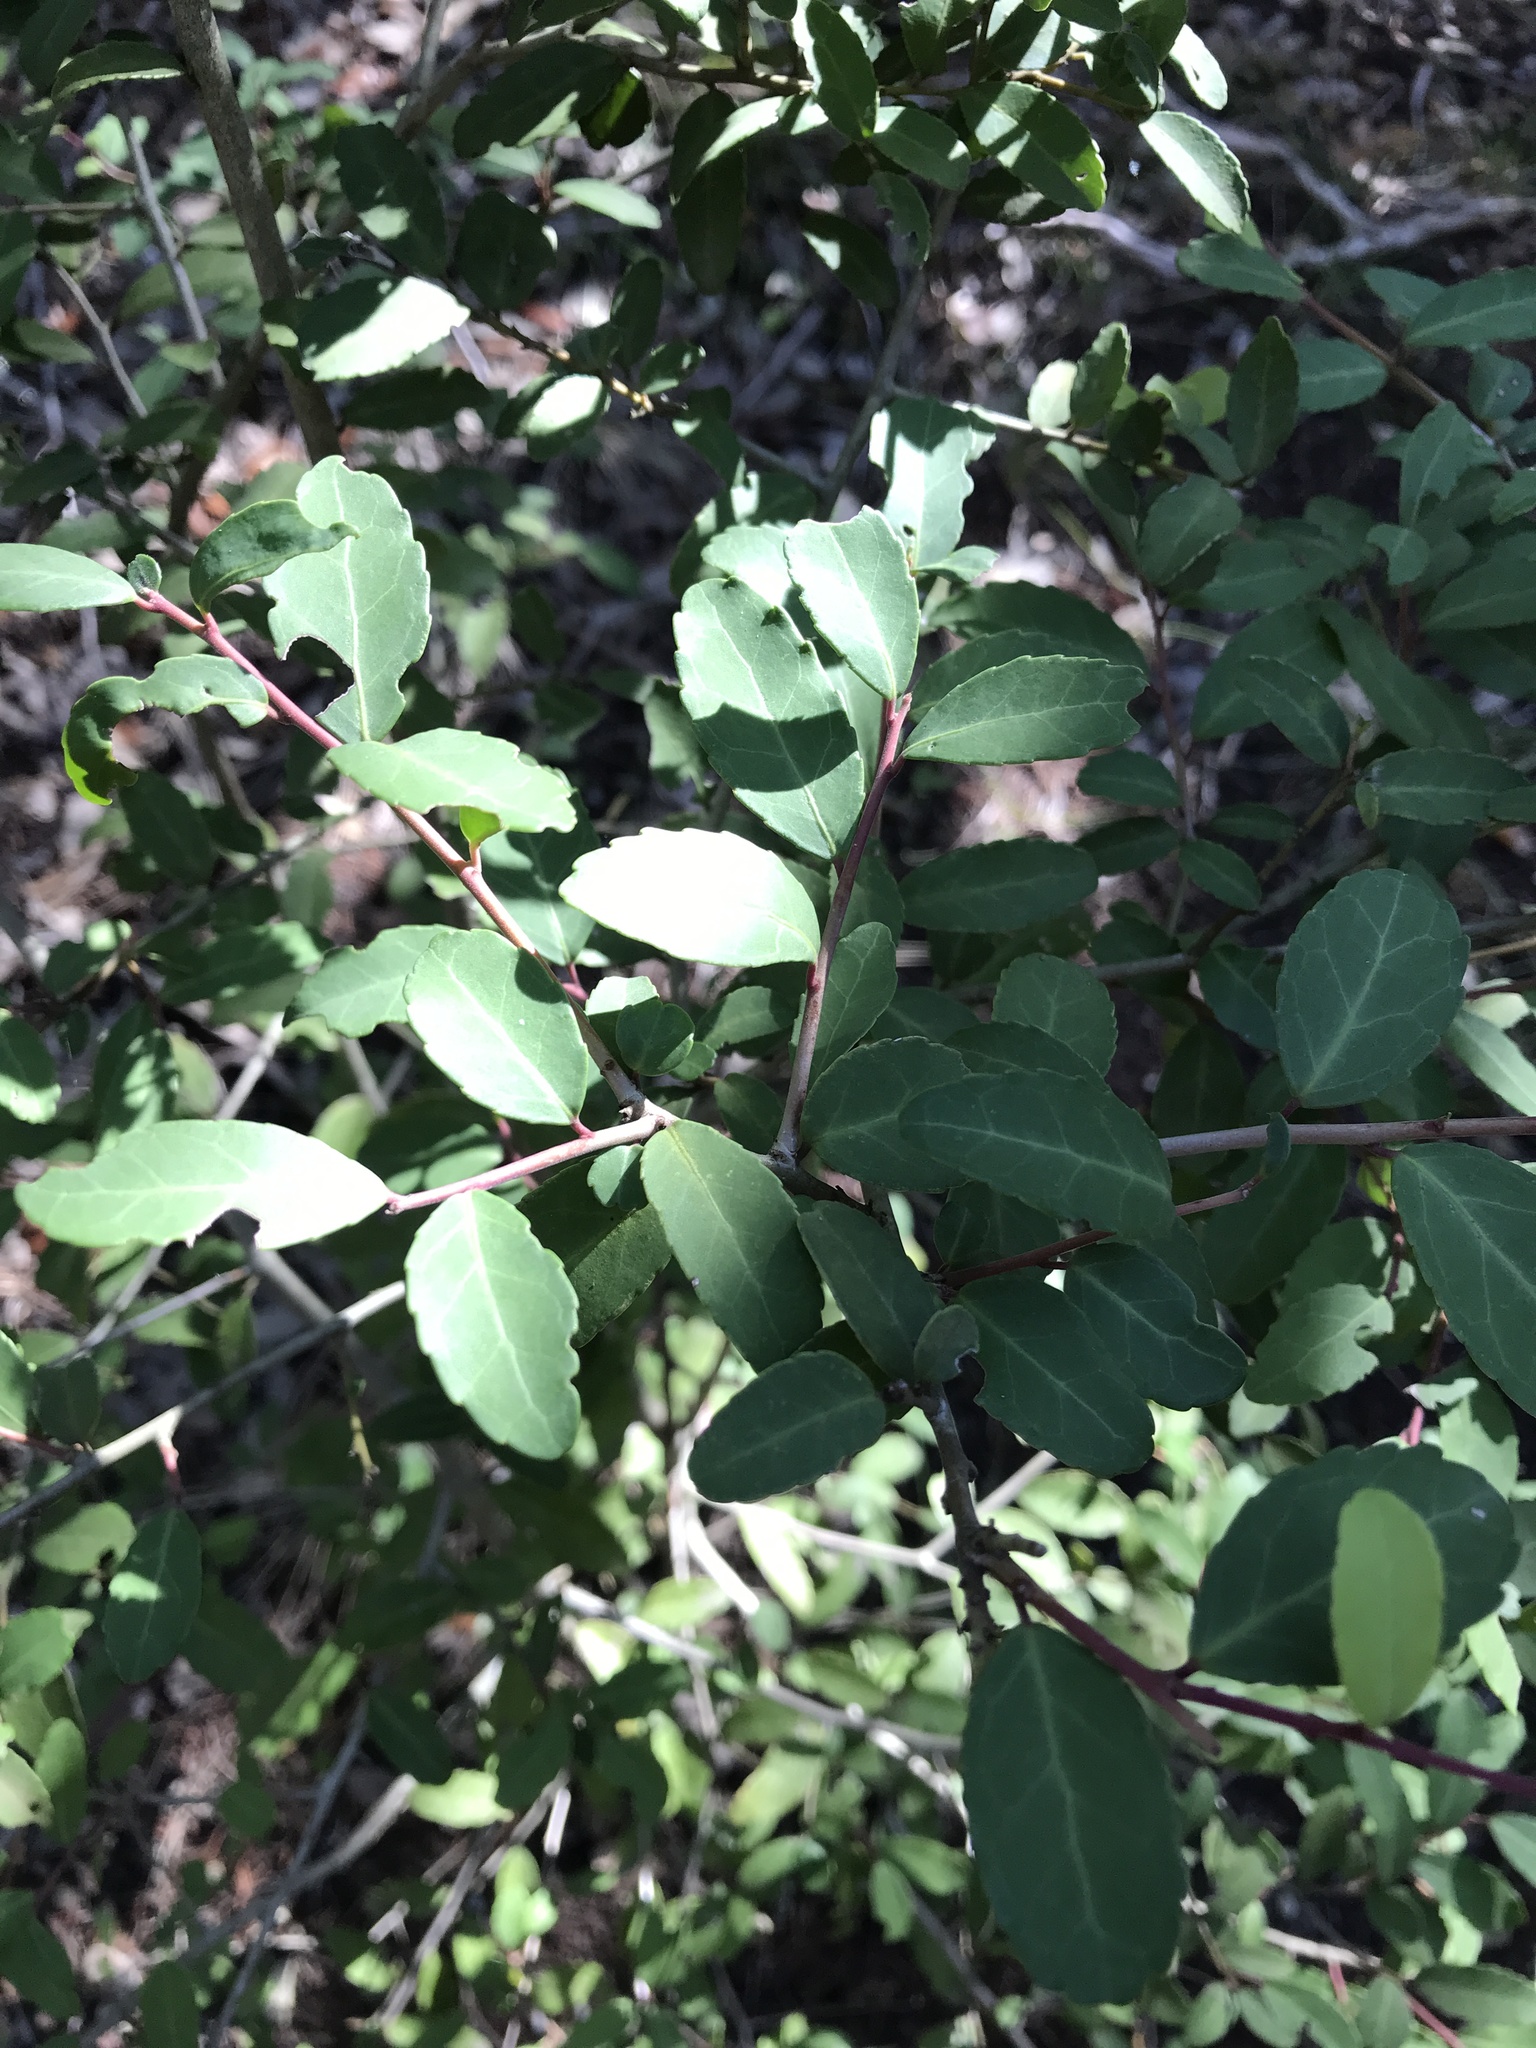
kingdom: Plantae
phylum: Tracheophyta
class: Magnoliopsida
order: Aquifoliales
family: Aquifoliaceae
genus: Ilex
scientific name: Ilex vomitoria
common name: Yaupon holly
